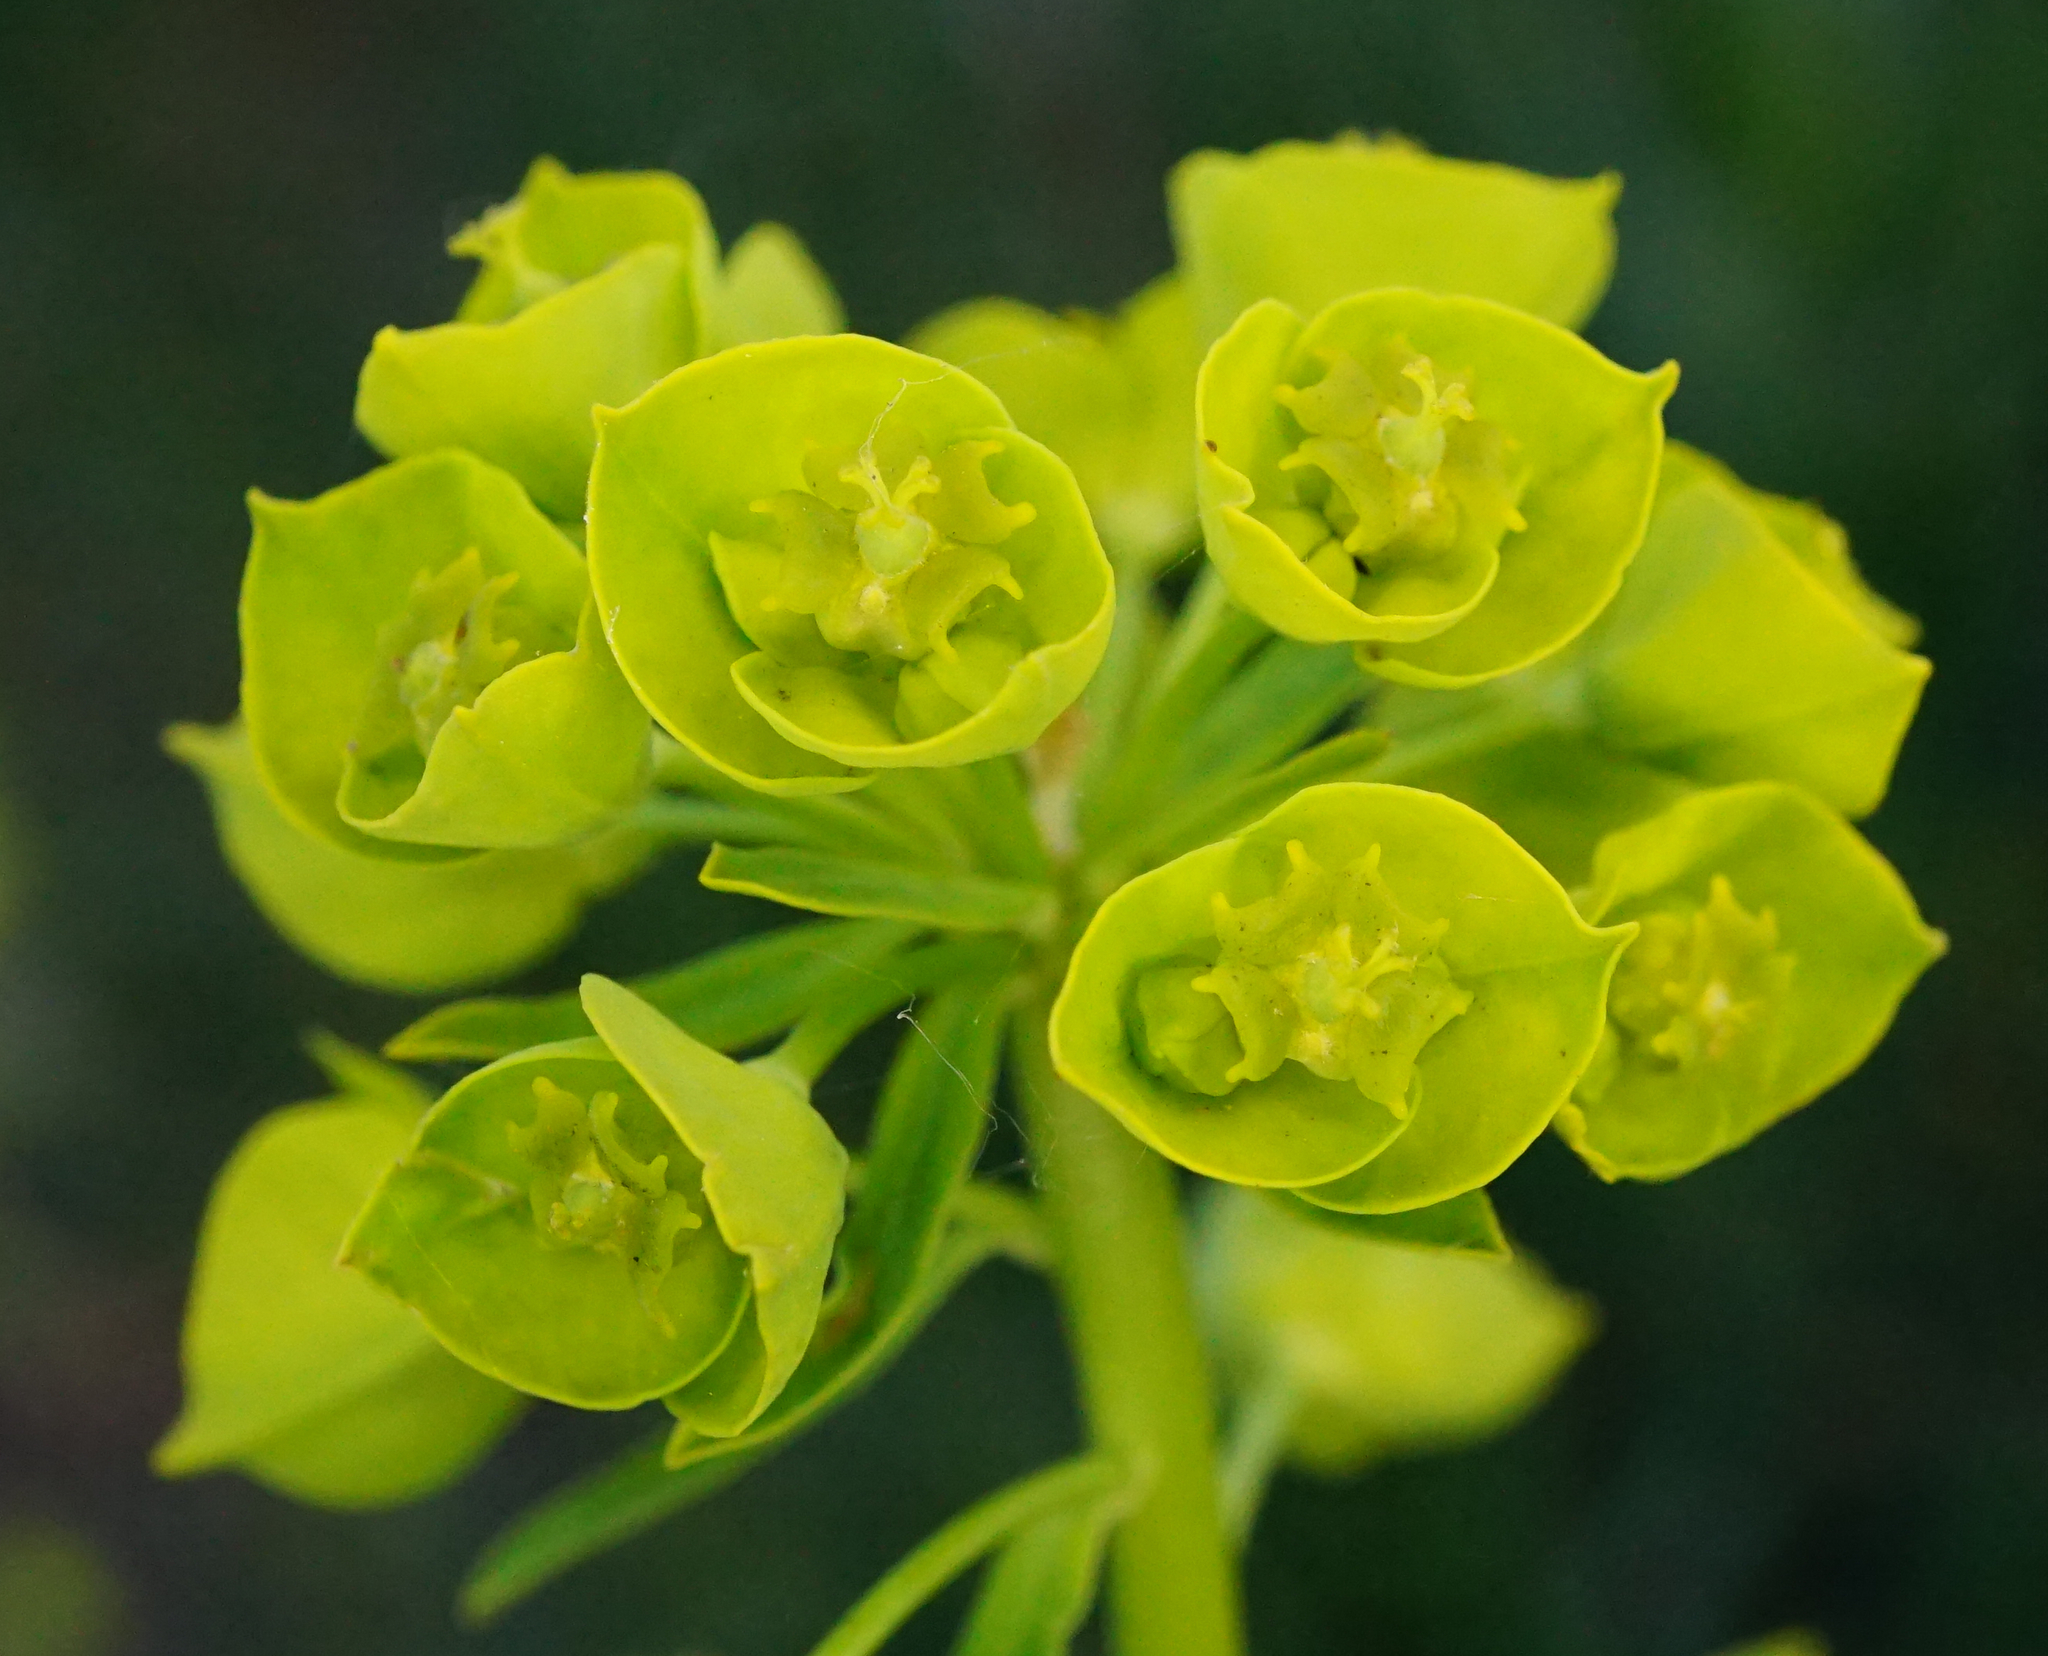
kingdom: Plantae
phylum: Tracheophyta
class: Magnoliopsida
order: Malpighiales
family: Euphorbiaceae
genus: Euphorbia
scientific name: Euphorbia esula
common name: Leafy spurge
